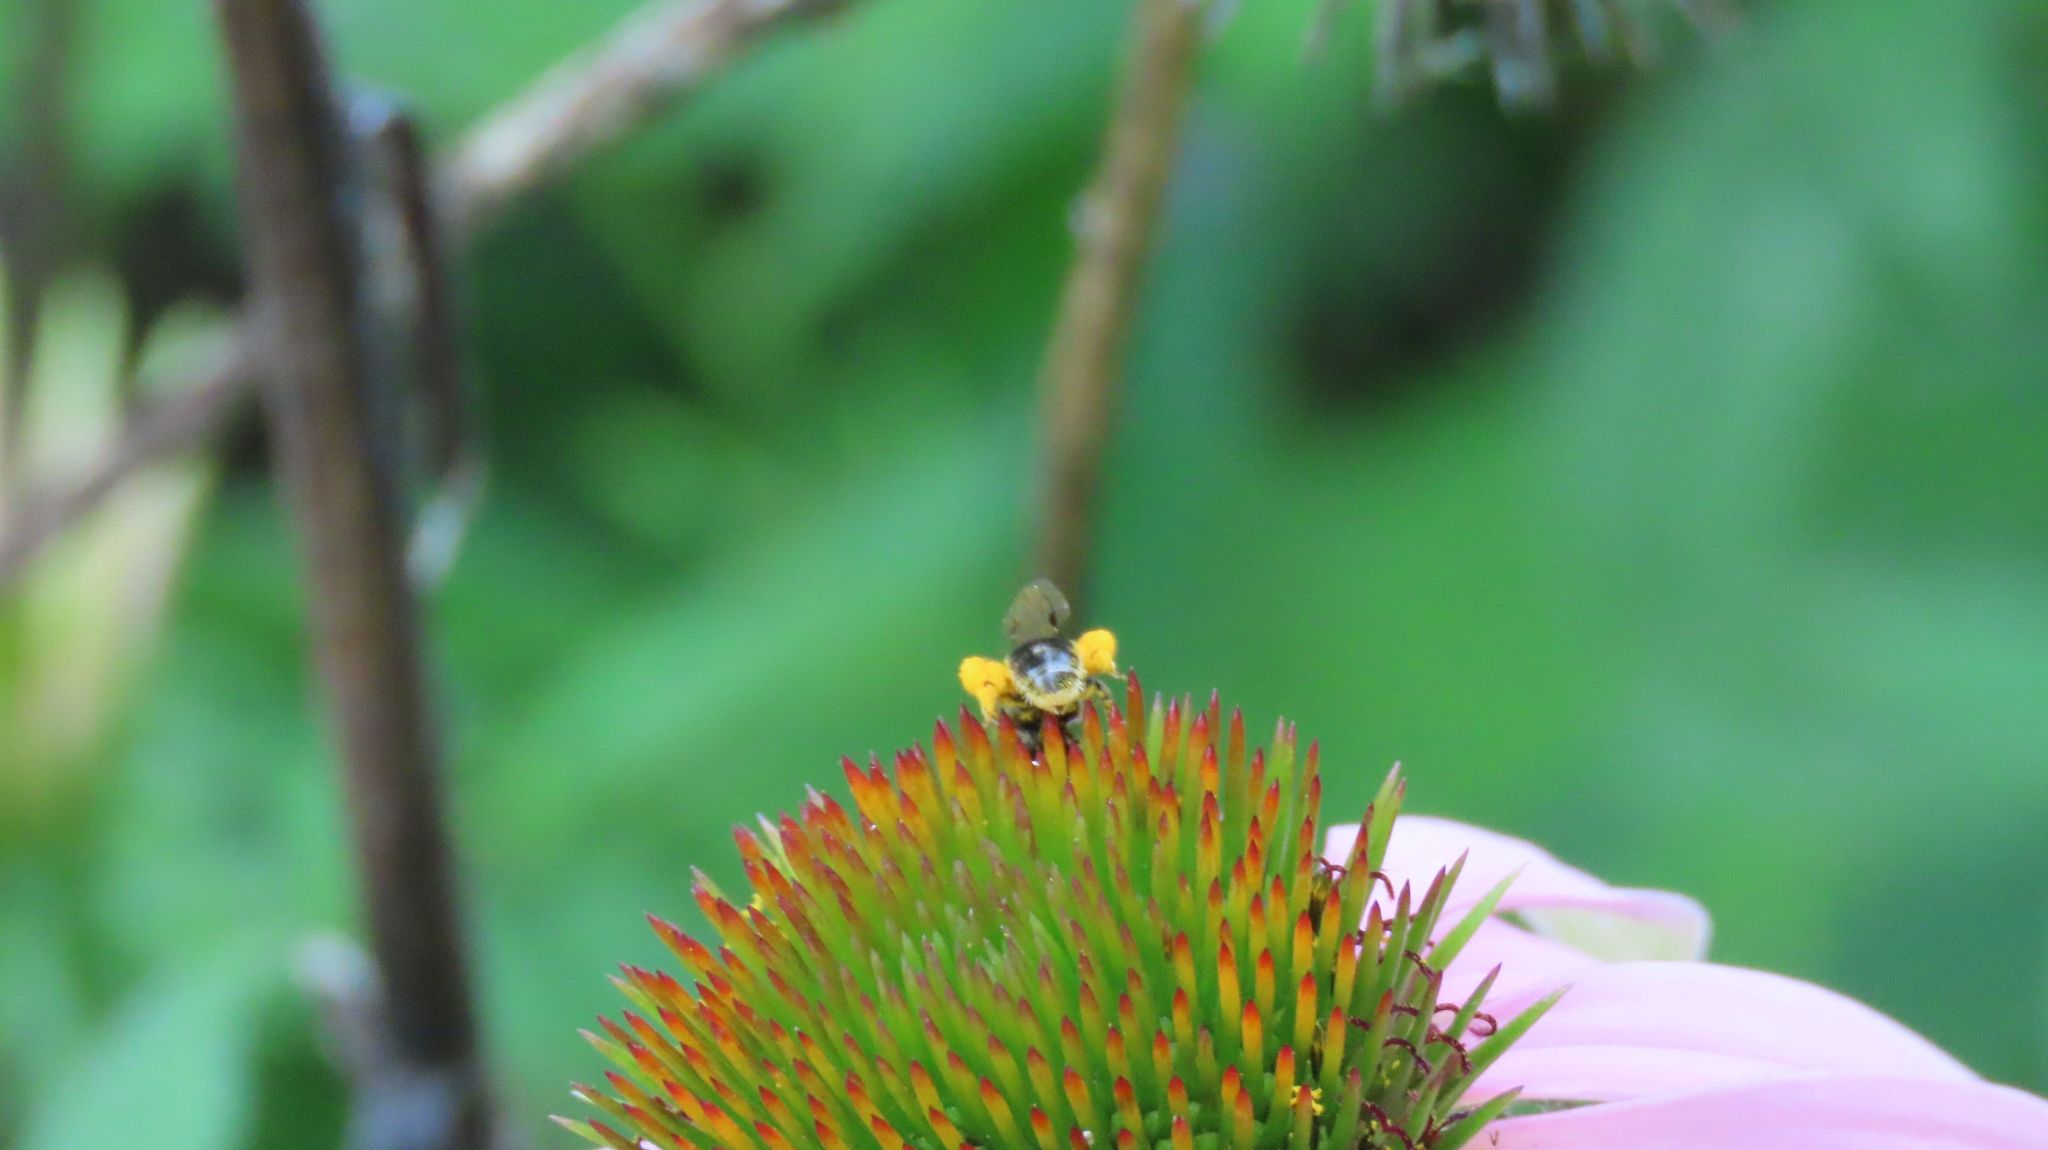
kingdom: Plantae
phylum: Tracheophyta
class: Magnoliopsida
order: Asterales
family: Asteraceae
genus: Echinacea
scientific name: Echinacea purpurea
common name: Broad-leaved purple coneflower
